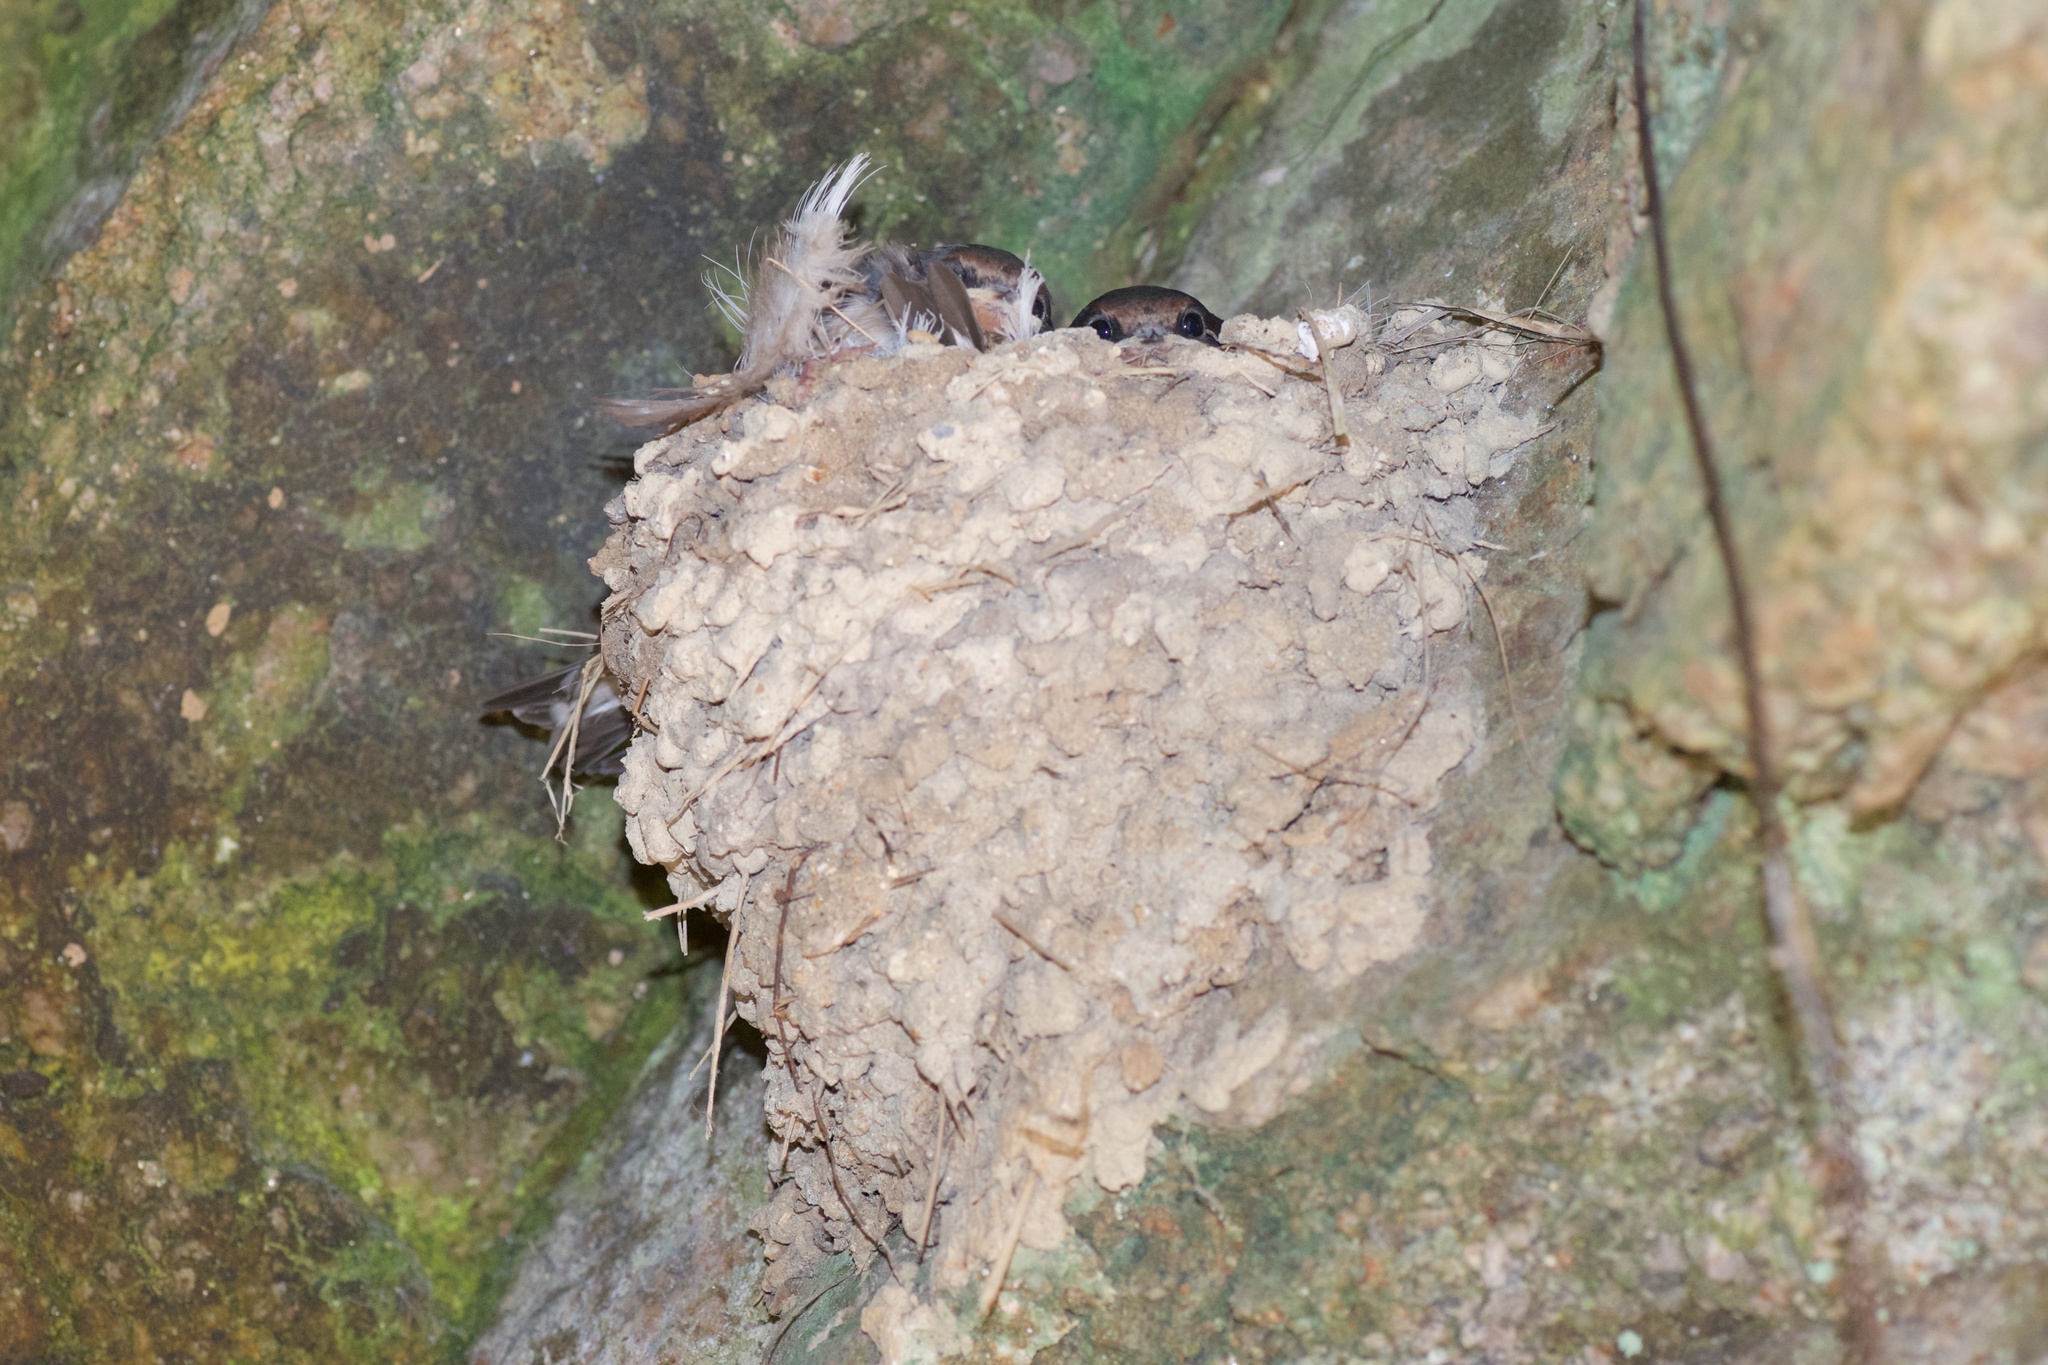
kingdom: Animalia
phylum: Chordata
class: Aves
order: Passeriformes
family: Hirundinidae
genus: Hirundo
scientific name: Hirundo neoxena
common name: Welcome swallow
